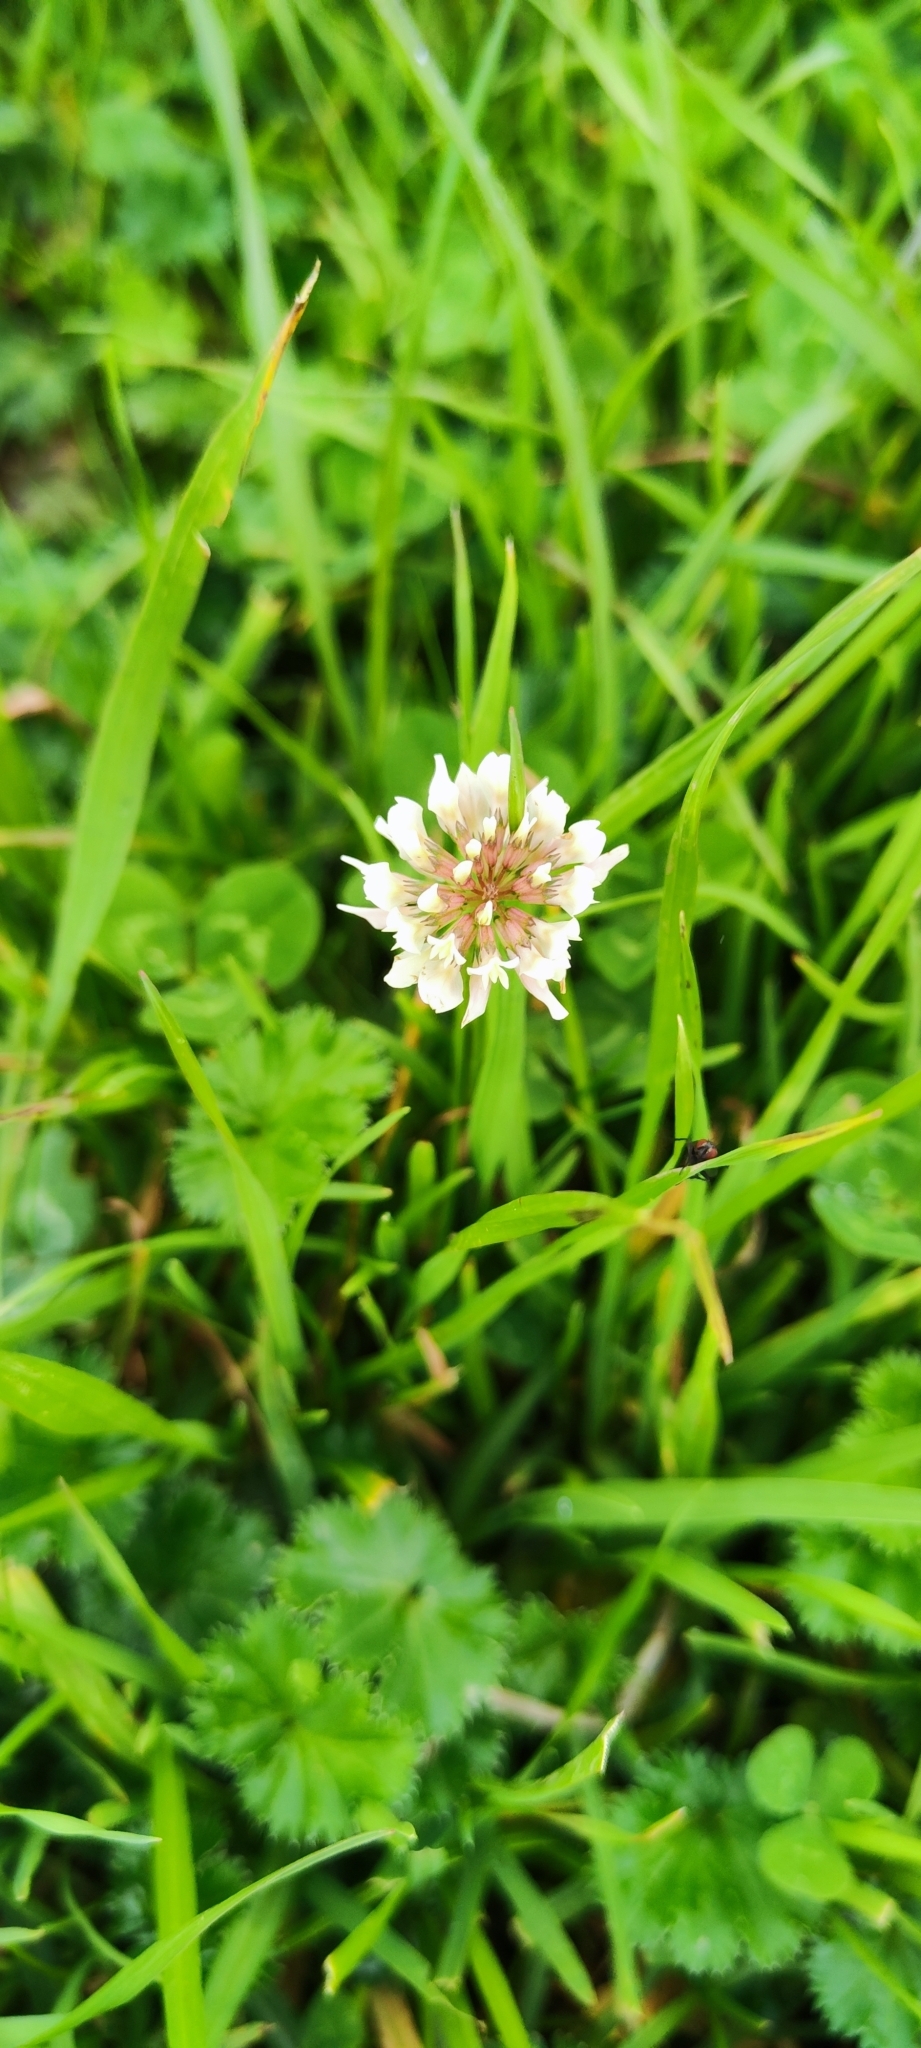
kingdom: Plantae
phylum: Tracheophyta
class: Magnoliopsida
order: Fabales
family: Fabaceae
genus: Trifolium
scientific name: Trifolium repens
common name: White clover
